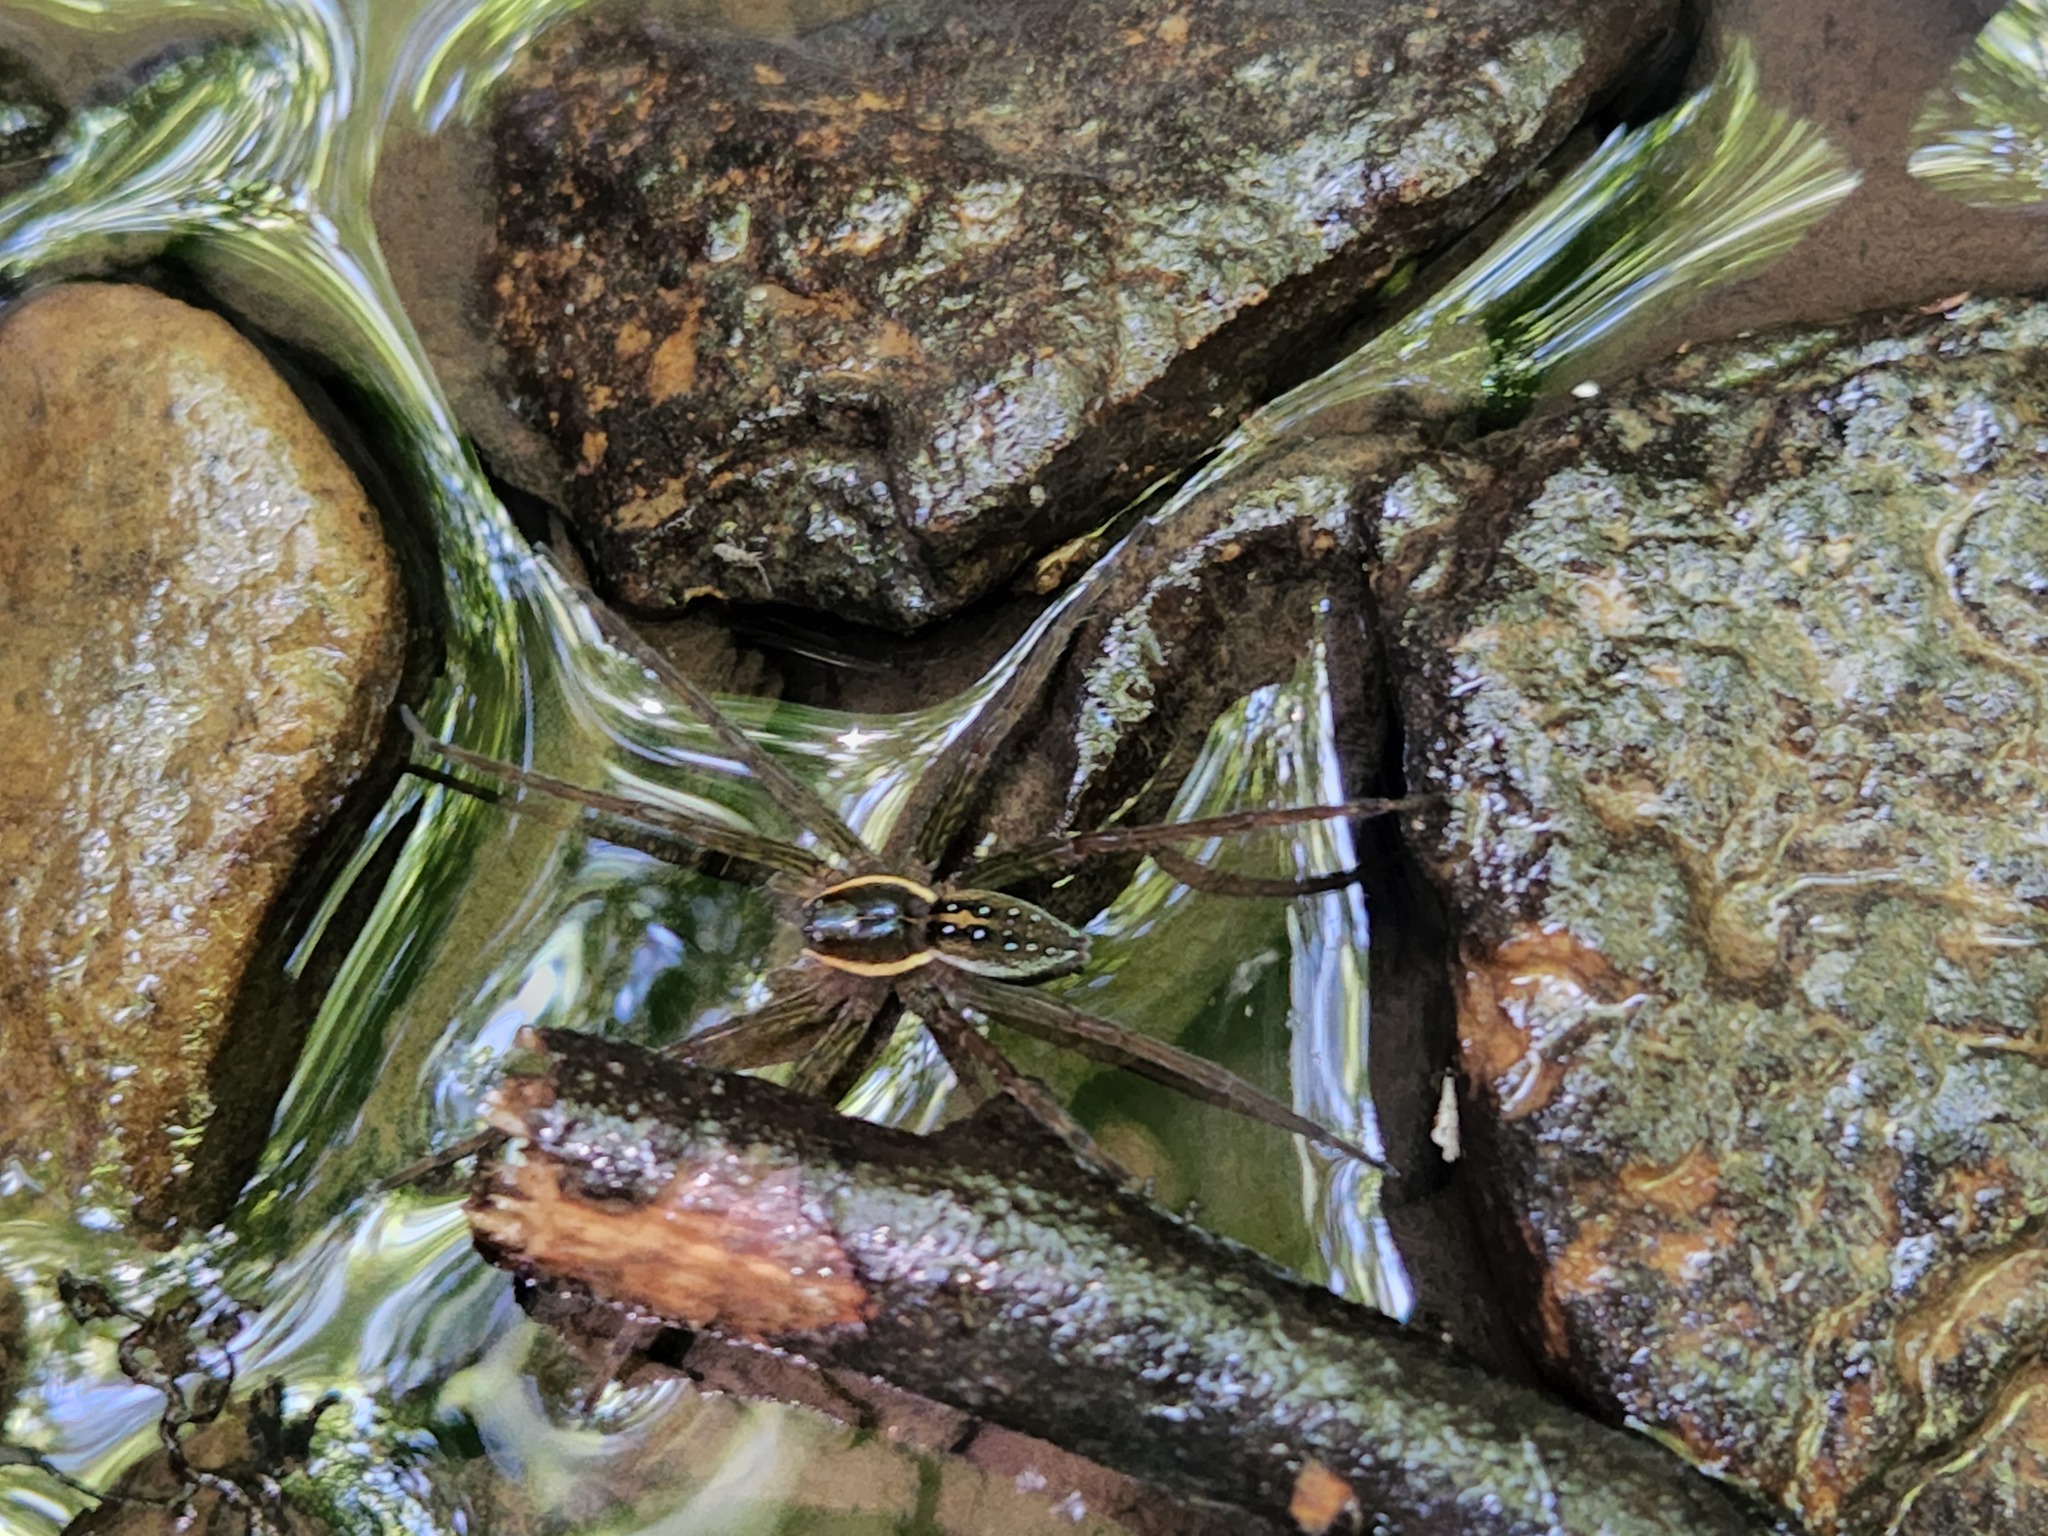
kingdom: Animalia
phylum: Arthropoda
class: Arachnida
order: Araneae
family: Pisauridae
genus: Dolomedes
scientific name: Dolomedes triton
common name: Six-spotted fishing spider
